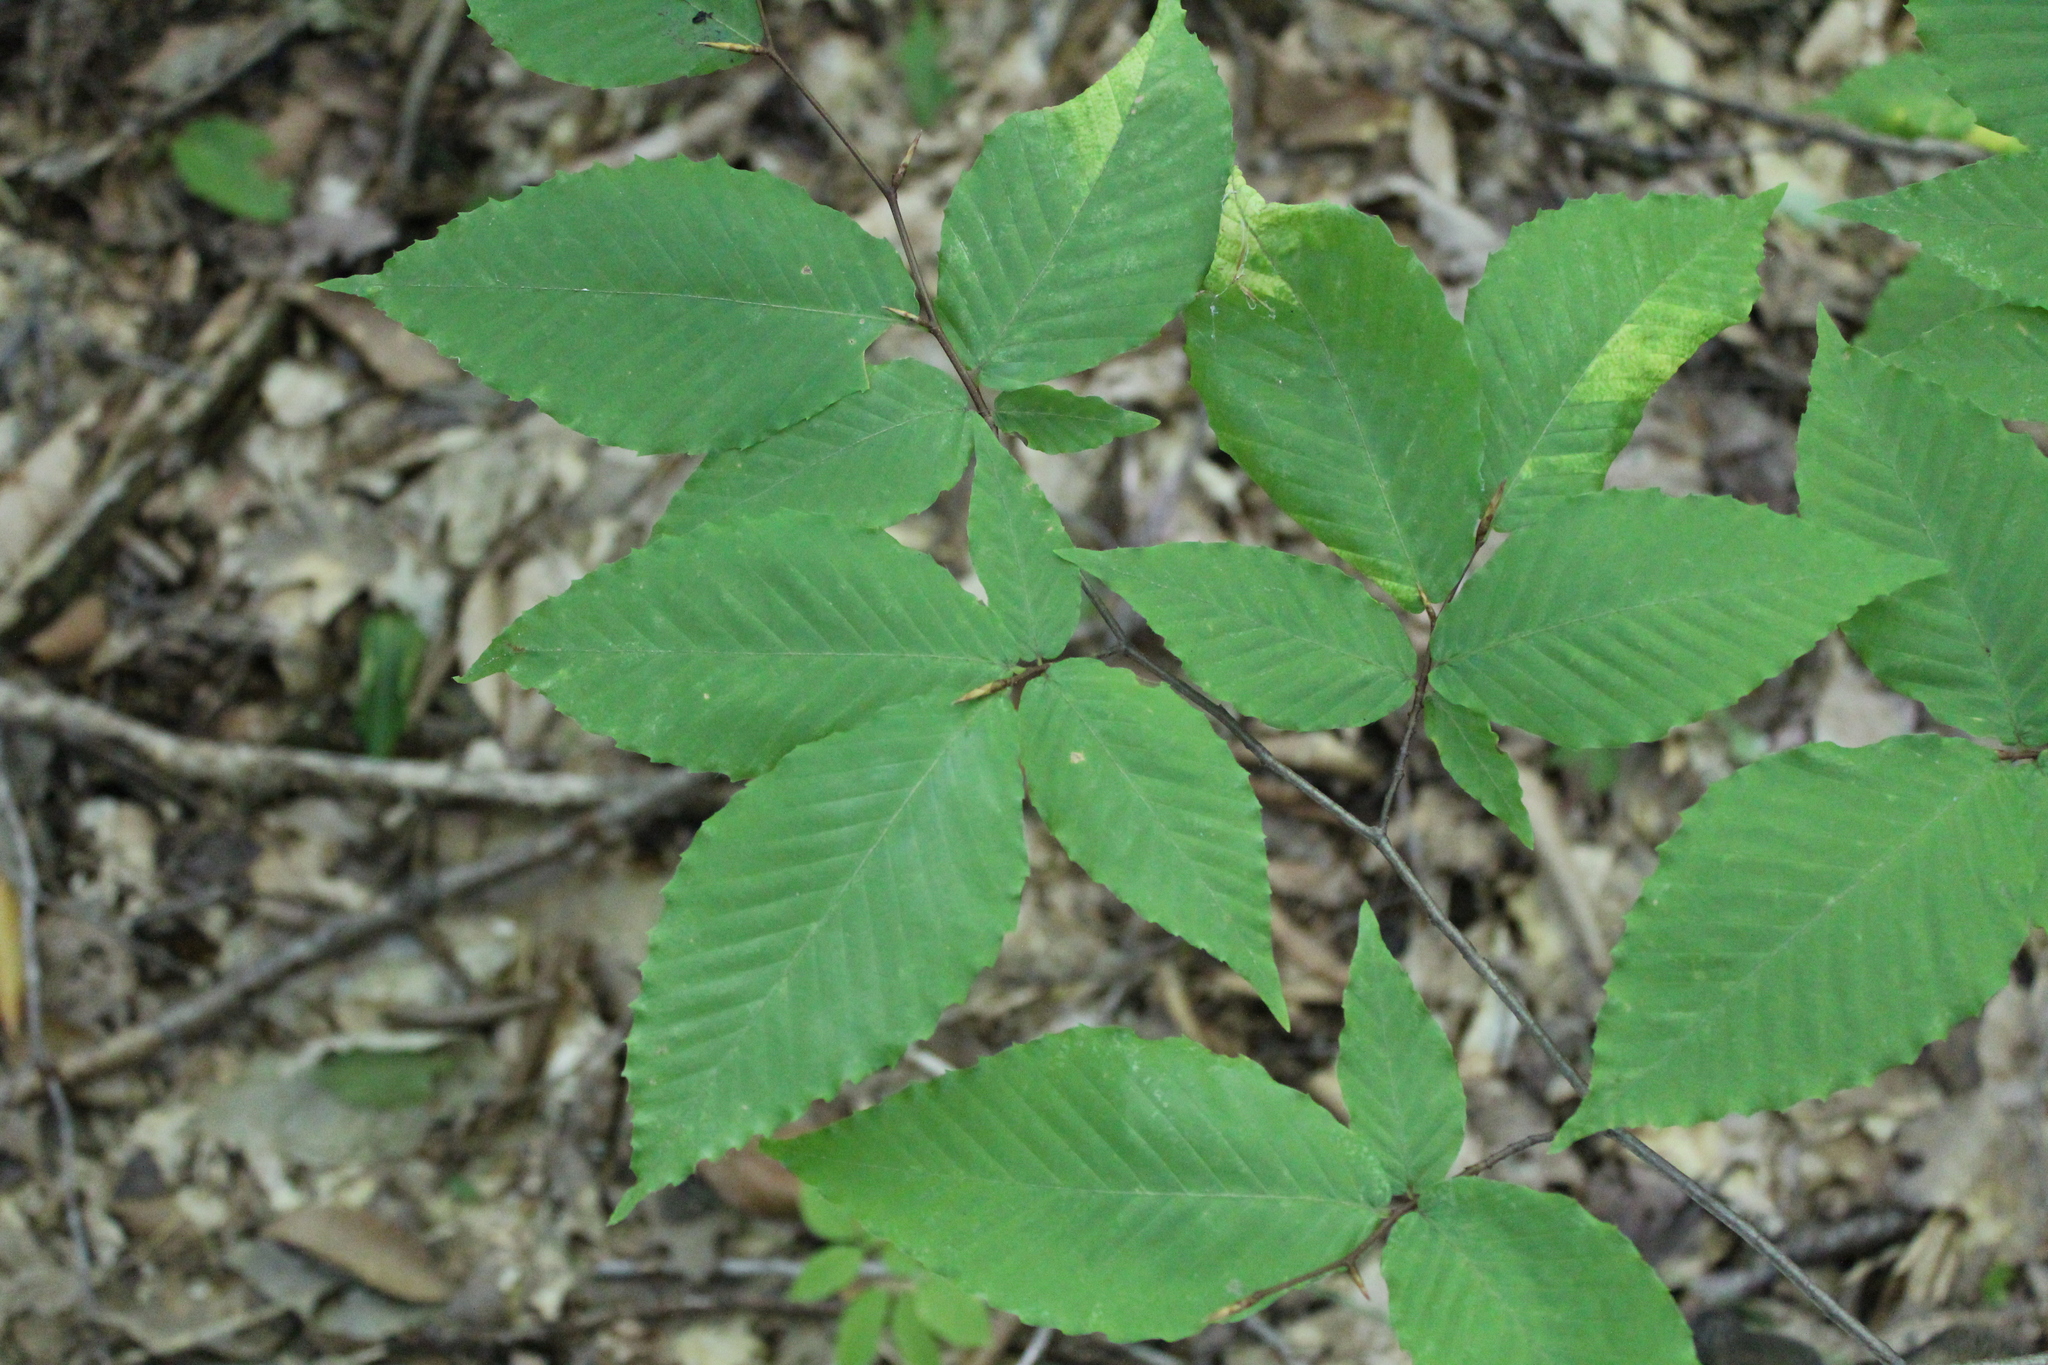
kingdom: Plantae
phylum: Tracheophyta
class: Magnoliopsida
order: Fagales
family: Fagaceae
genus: Fagus
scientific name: Fagus grandifolia
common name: American beech
